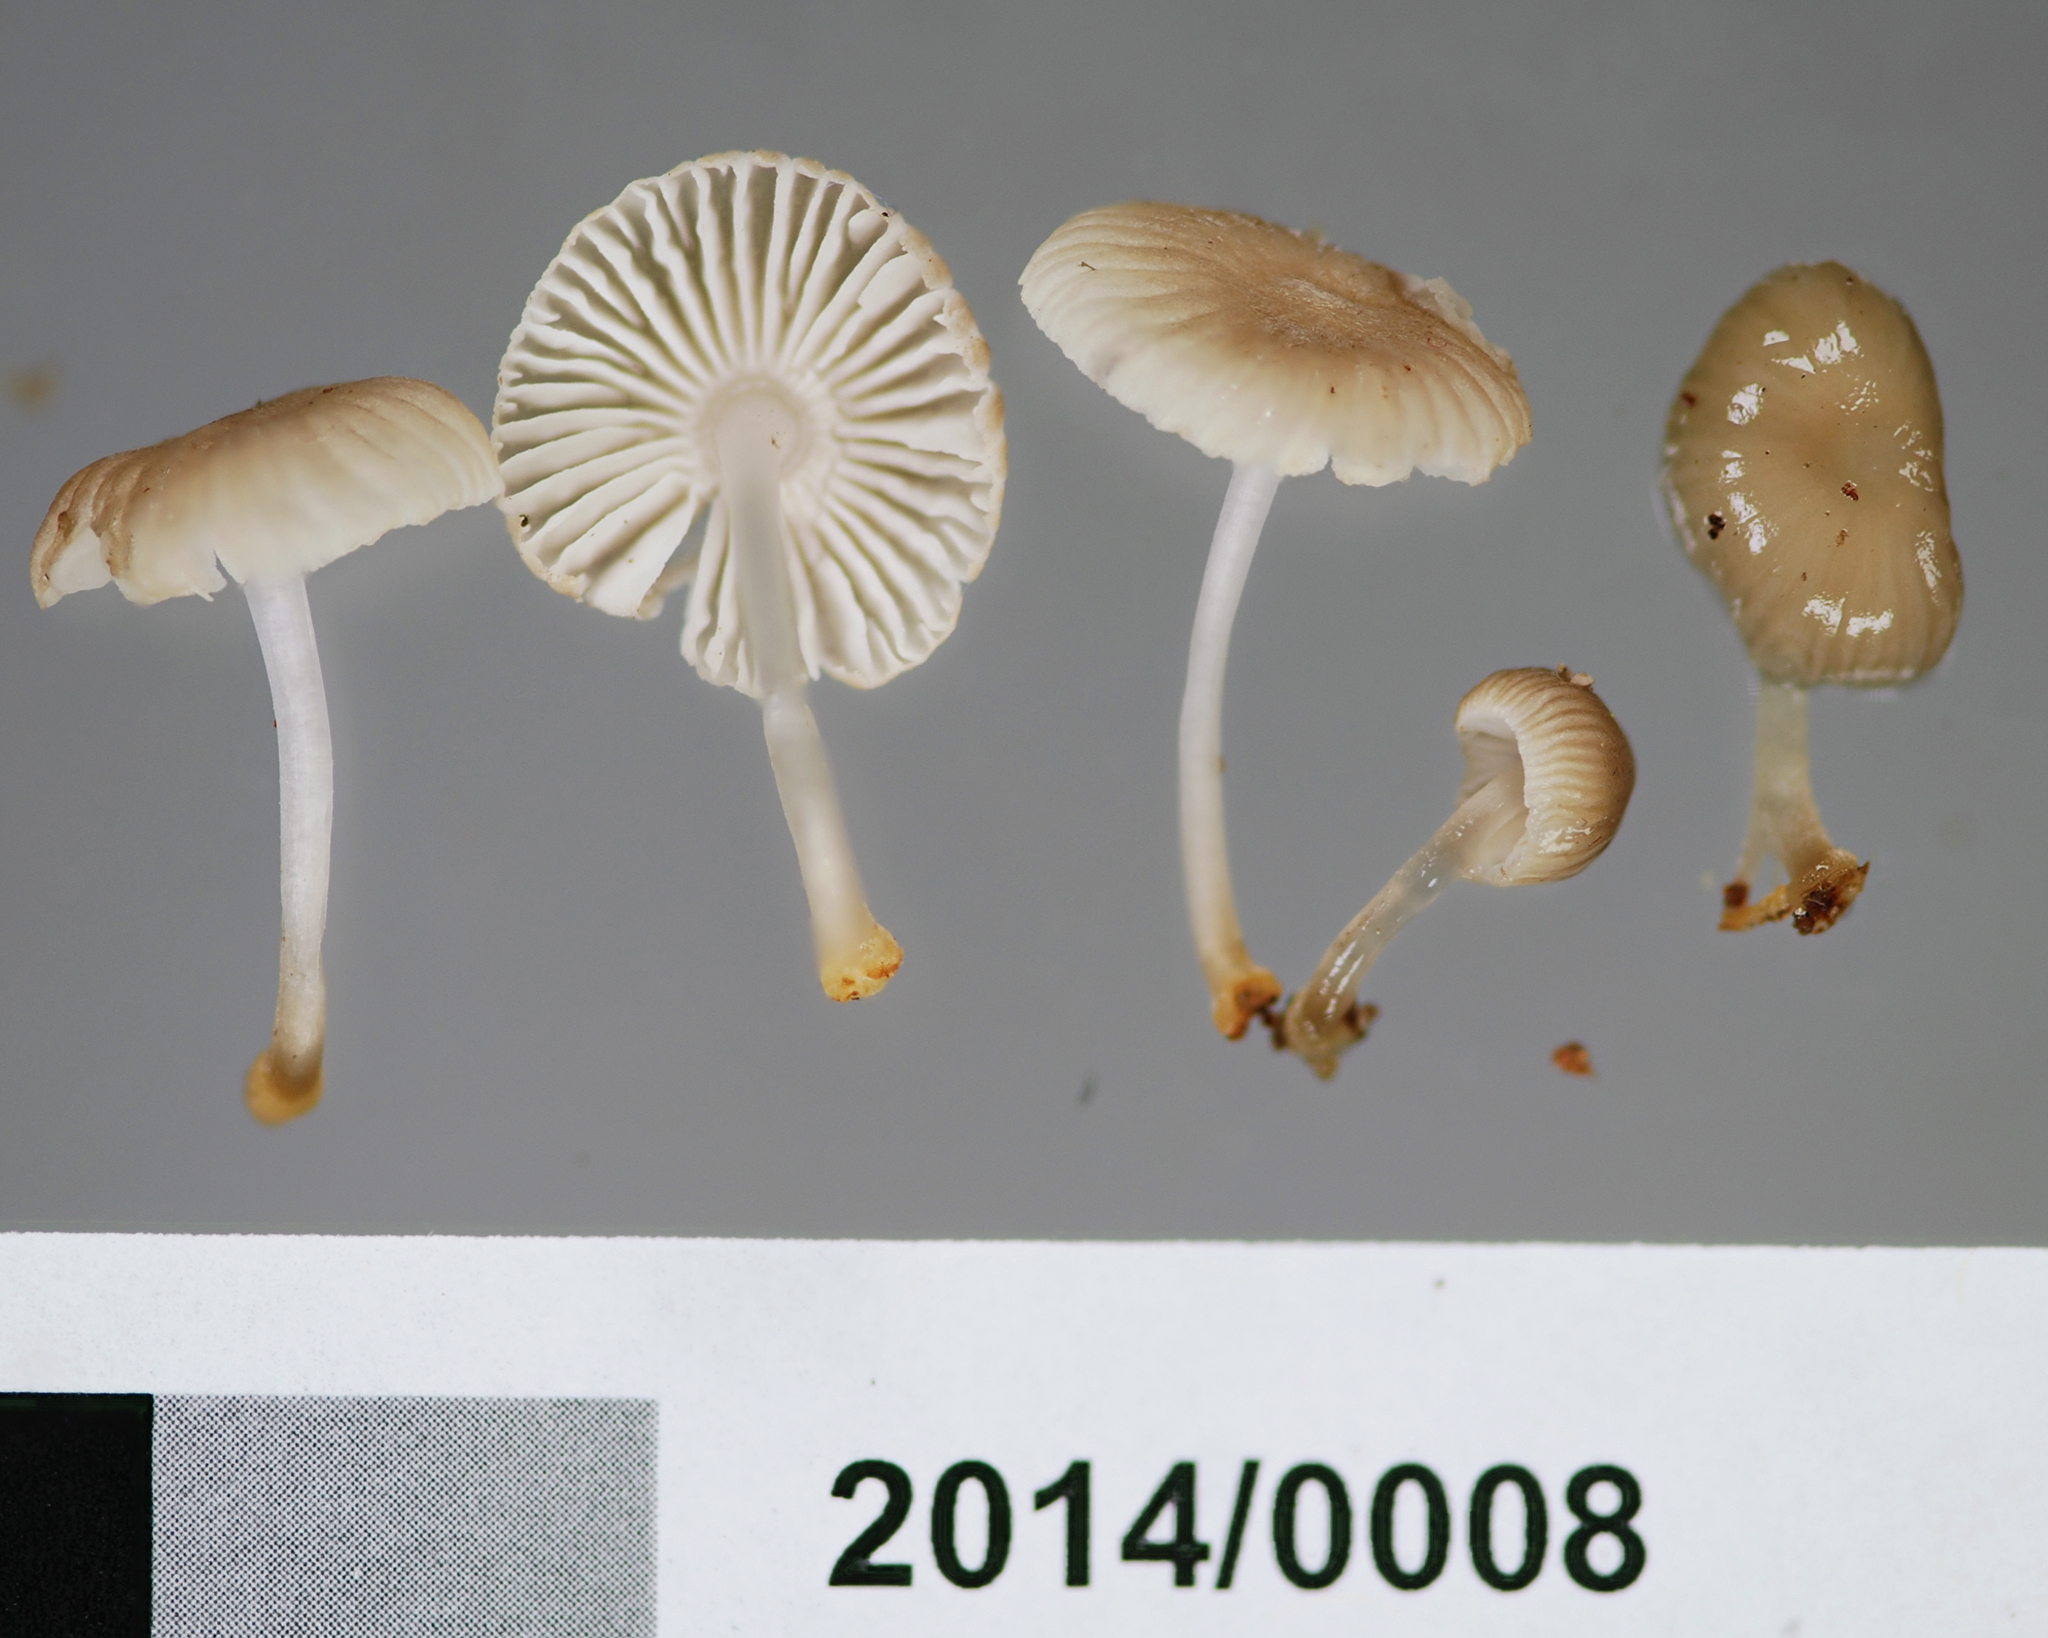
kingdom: Fungi
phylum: Basidiomycota
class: Agaricomycetes
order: Agaricales
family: Mycenaceae
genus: Mycena
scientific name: Mycena carmeliana
